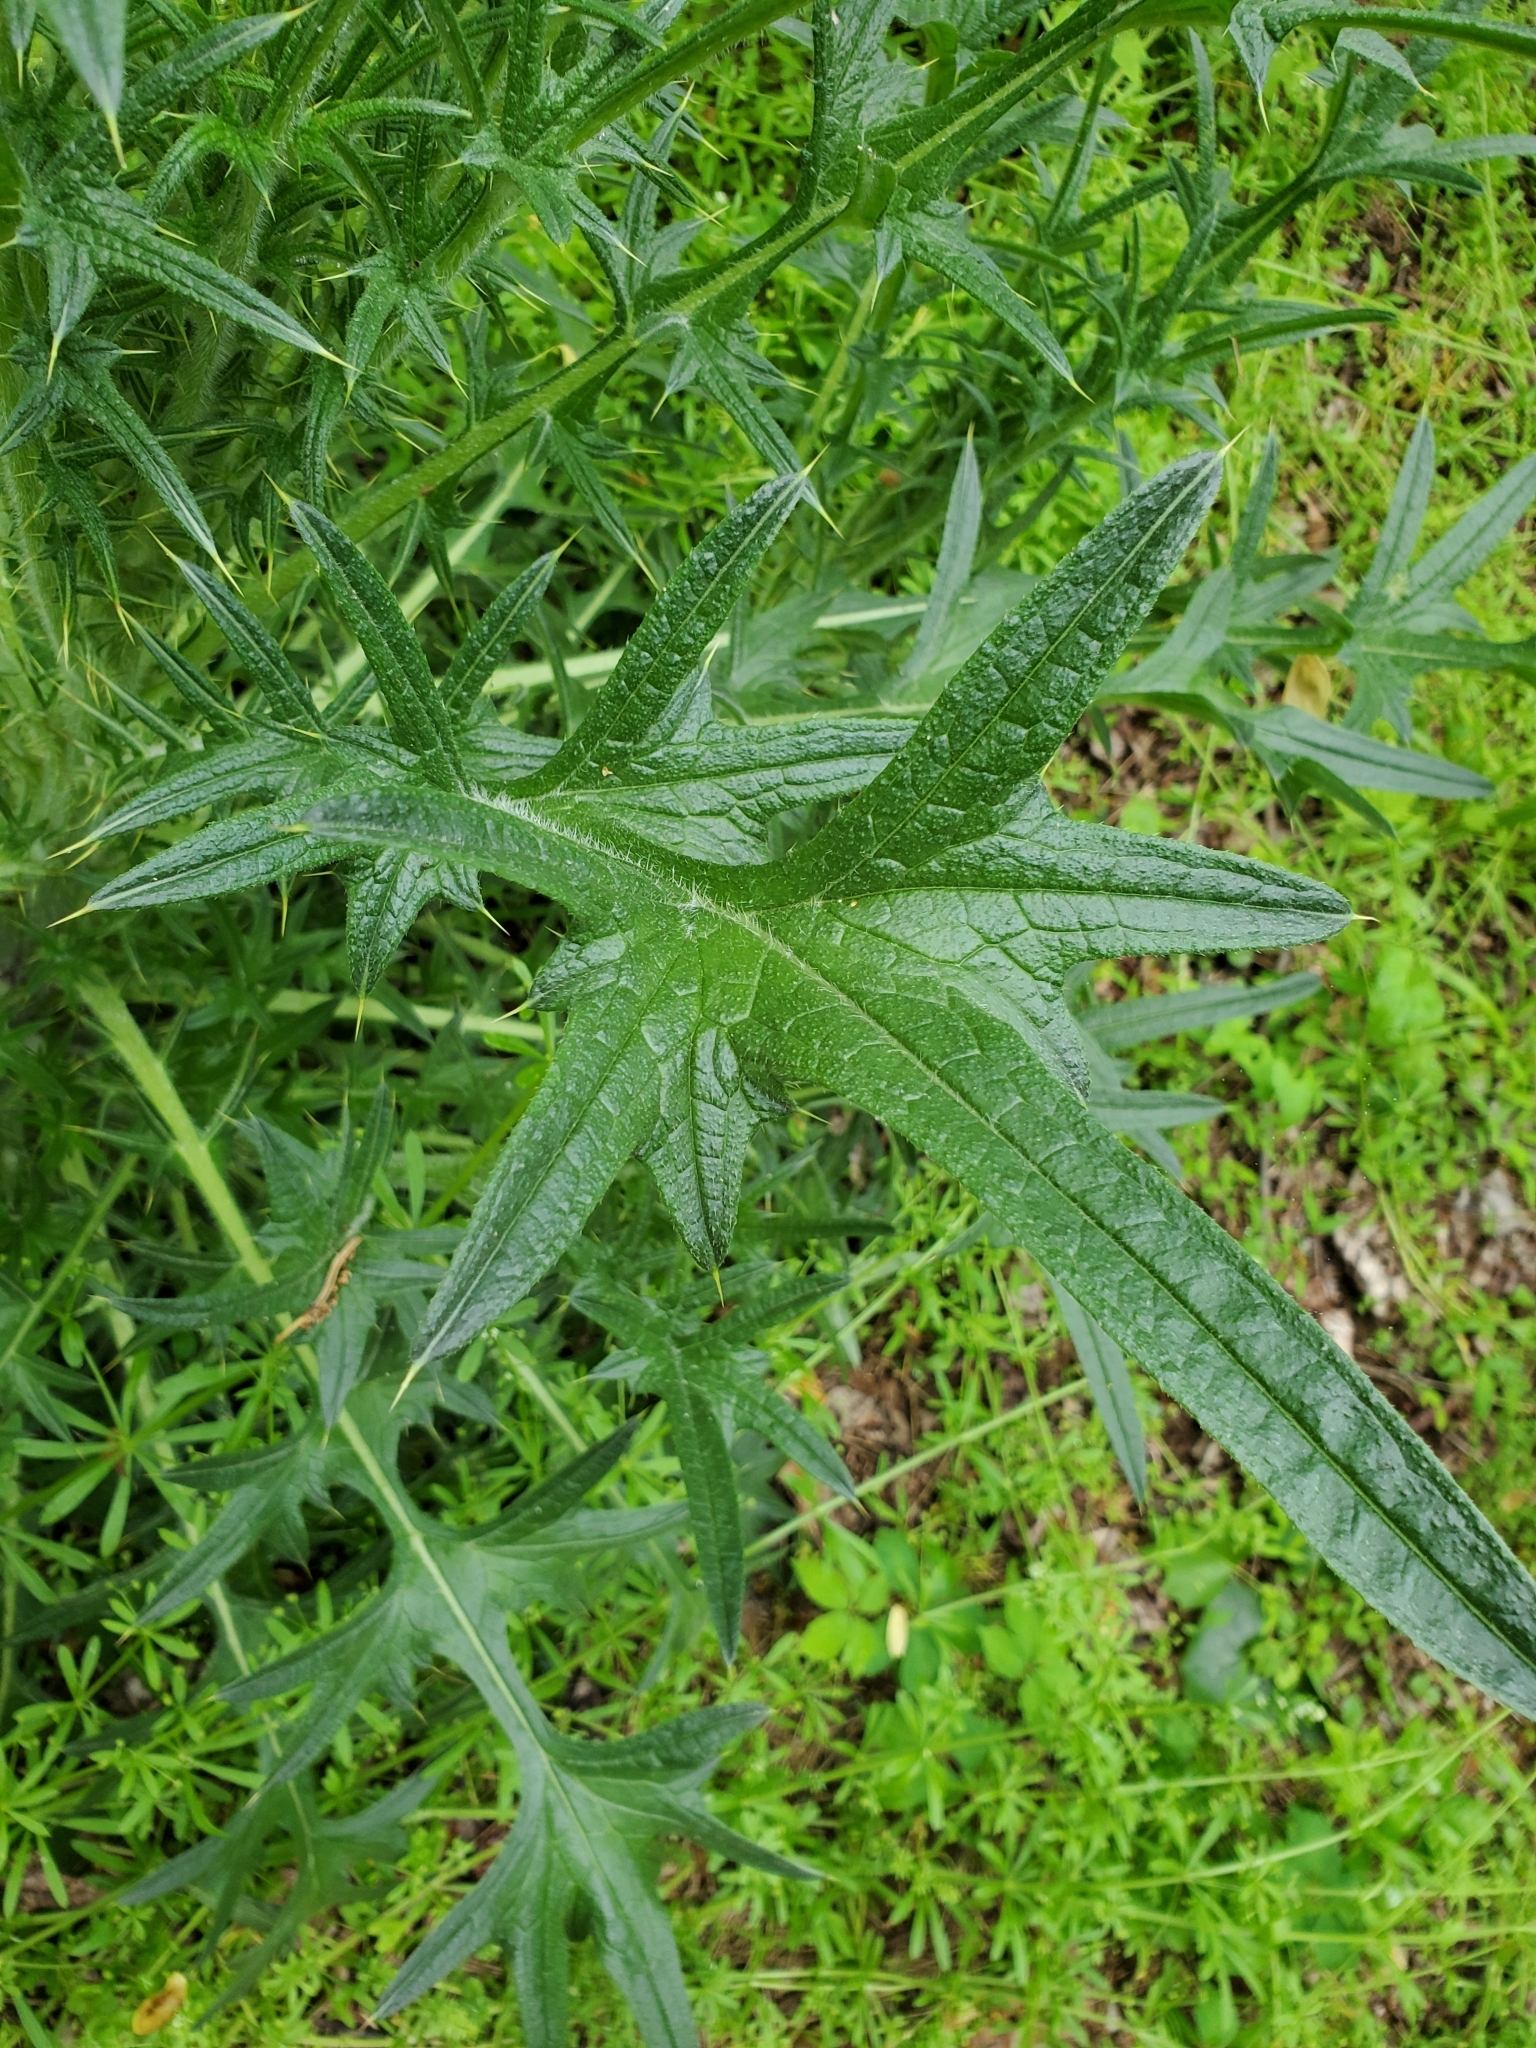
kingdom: Plantae
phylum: Tracheophyta
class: Magnoliopsida
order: Asterales
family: Asteraceae
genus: Cirsium
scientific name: Cirsium vulgare
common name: Bull thistle
